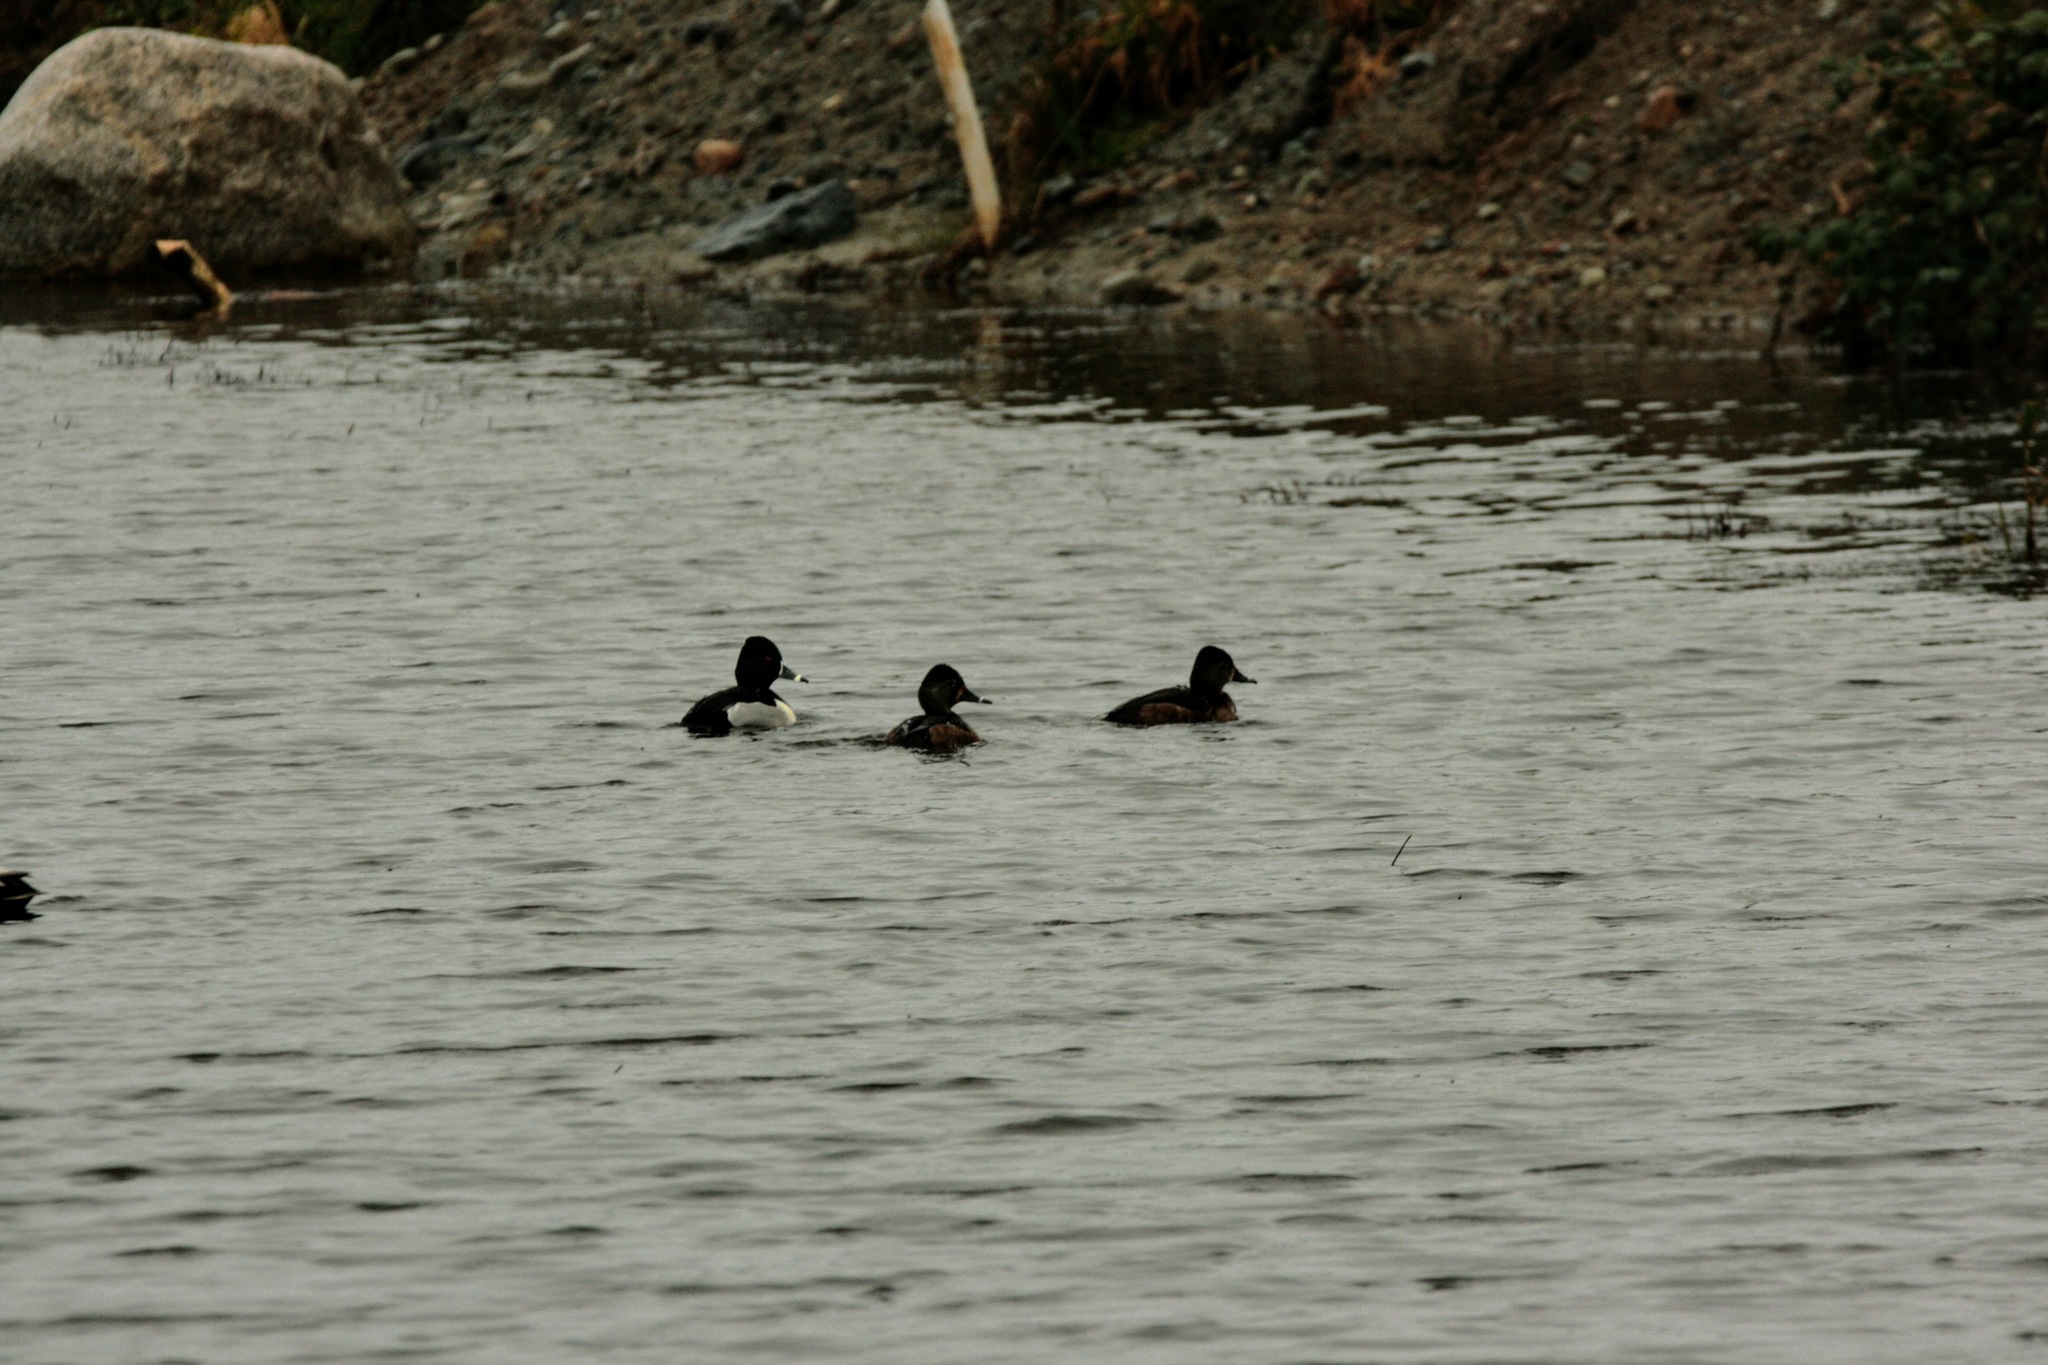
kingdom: Animalia
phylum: Chordata
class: Aves
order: Anseriformes
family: Anatidae
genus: Aythya
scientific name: Aythya collaris
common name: Ring-necked duck
